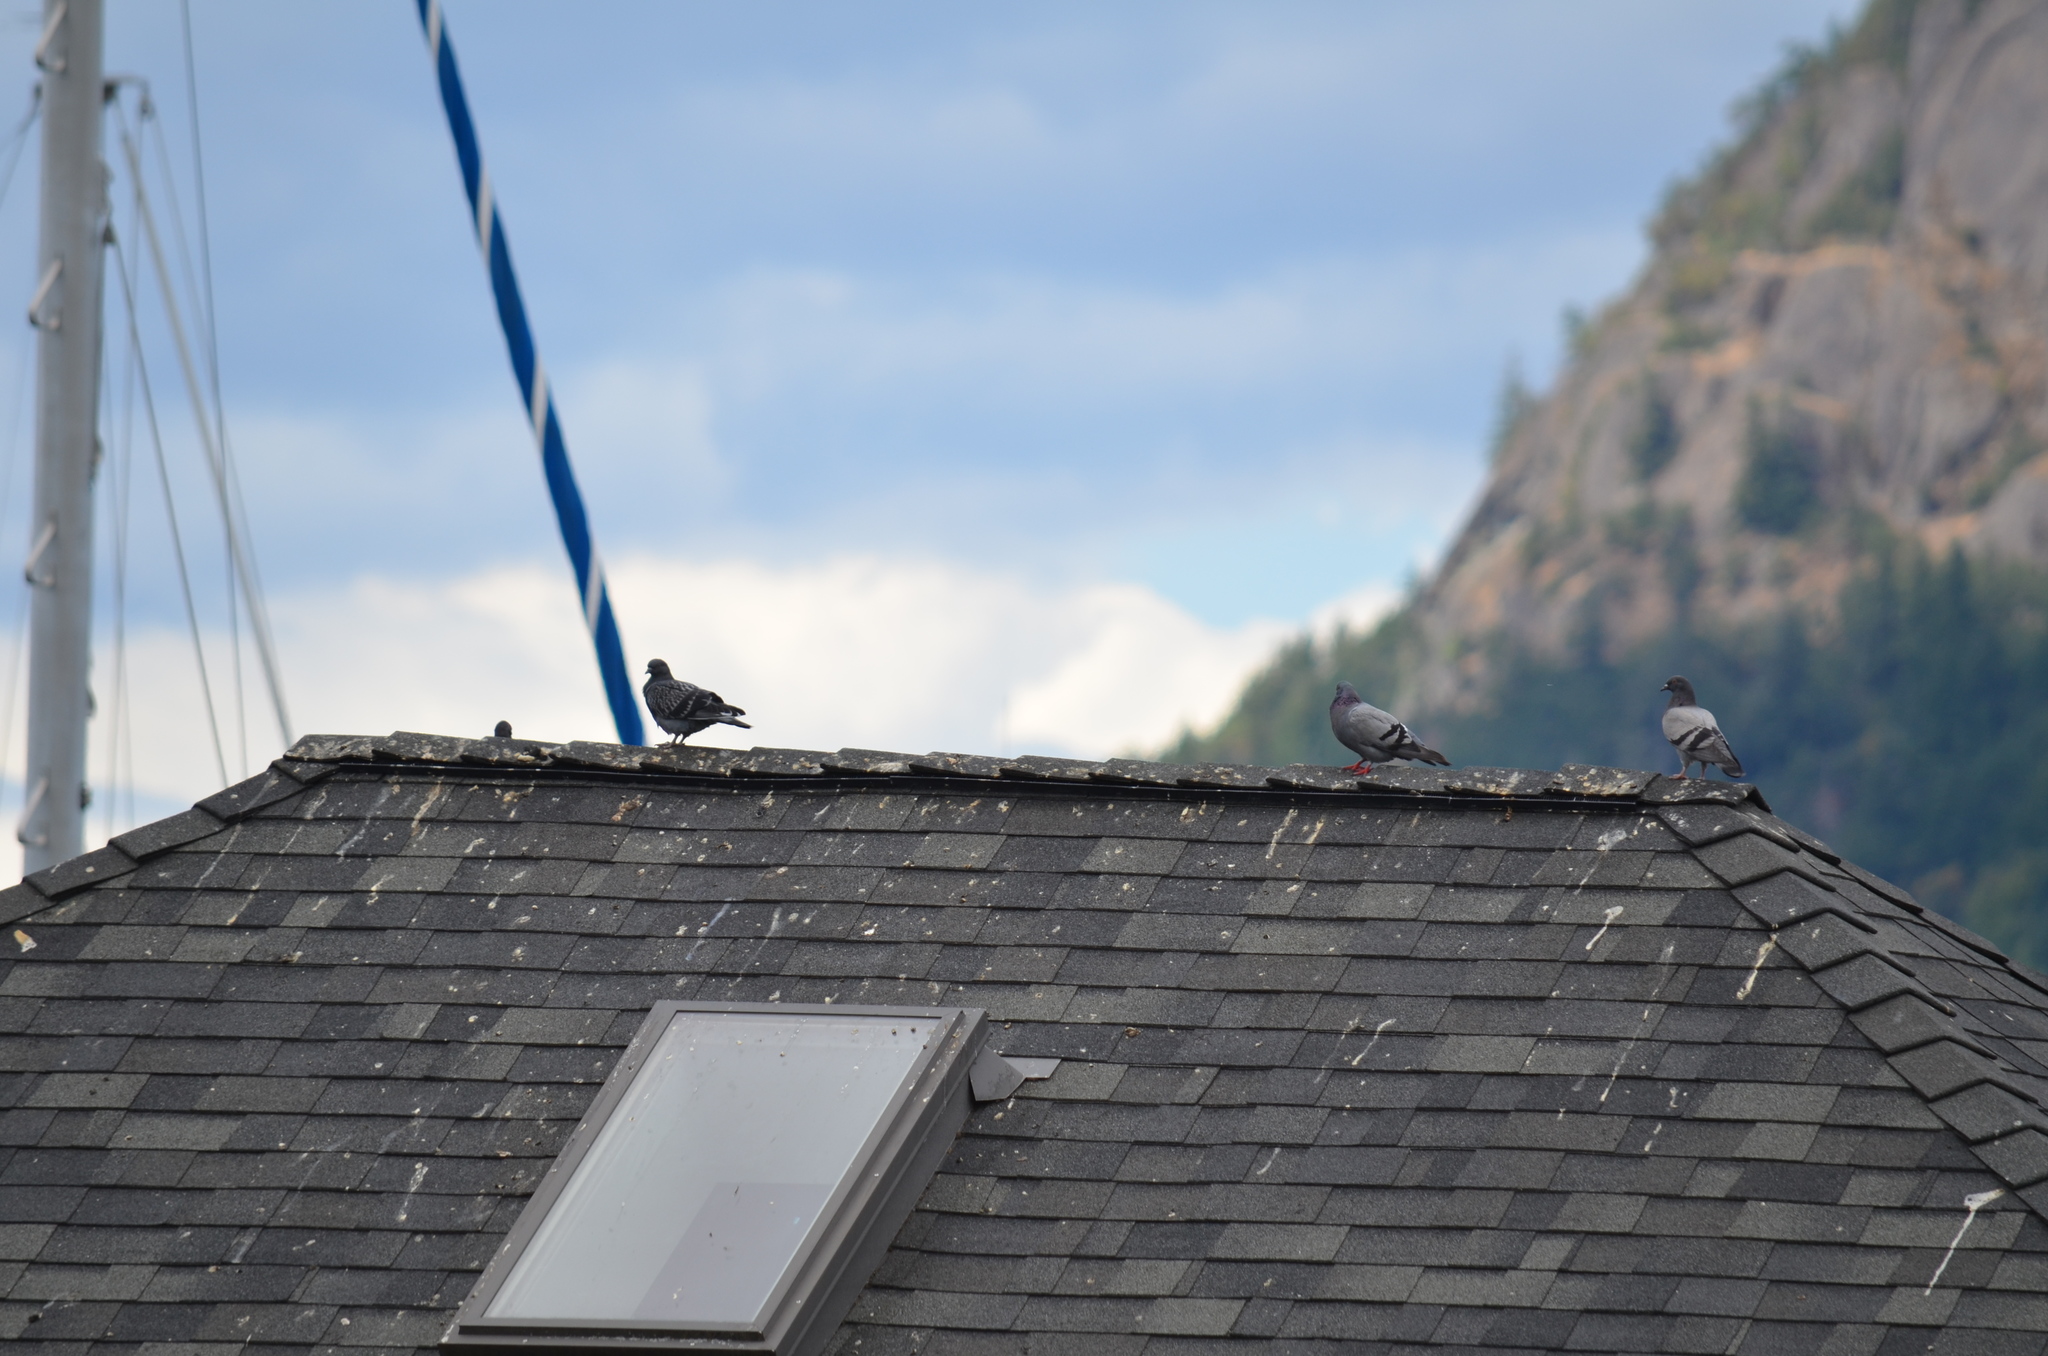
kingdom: Animalia
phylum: Chordata
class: Aves
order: Columbiformes
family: Columbidae
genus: Columba
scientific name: Columba livia
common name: Rock pigeon
